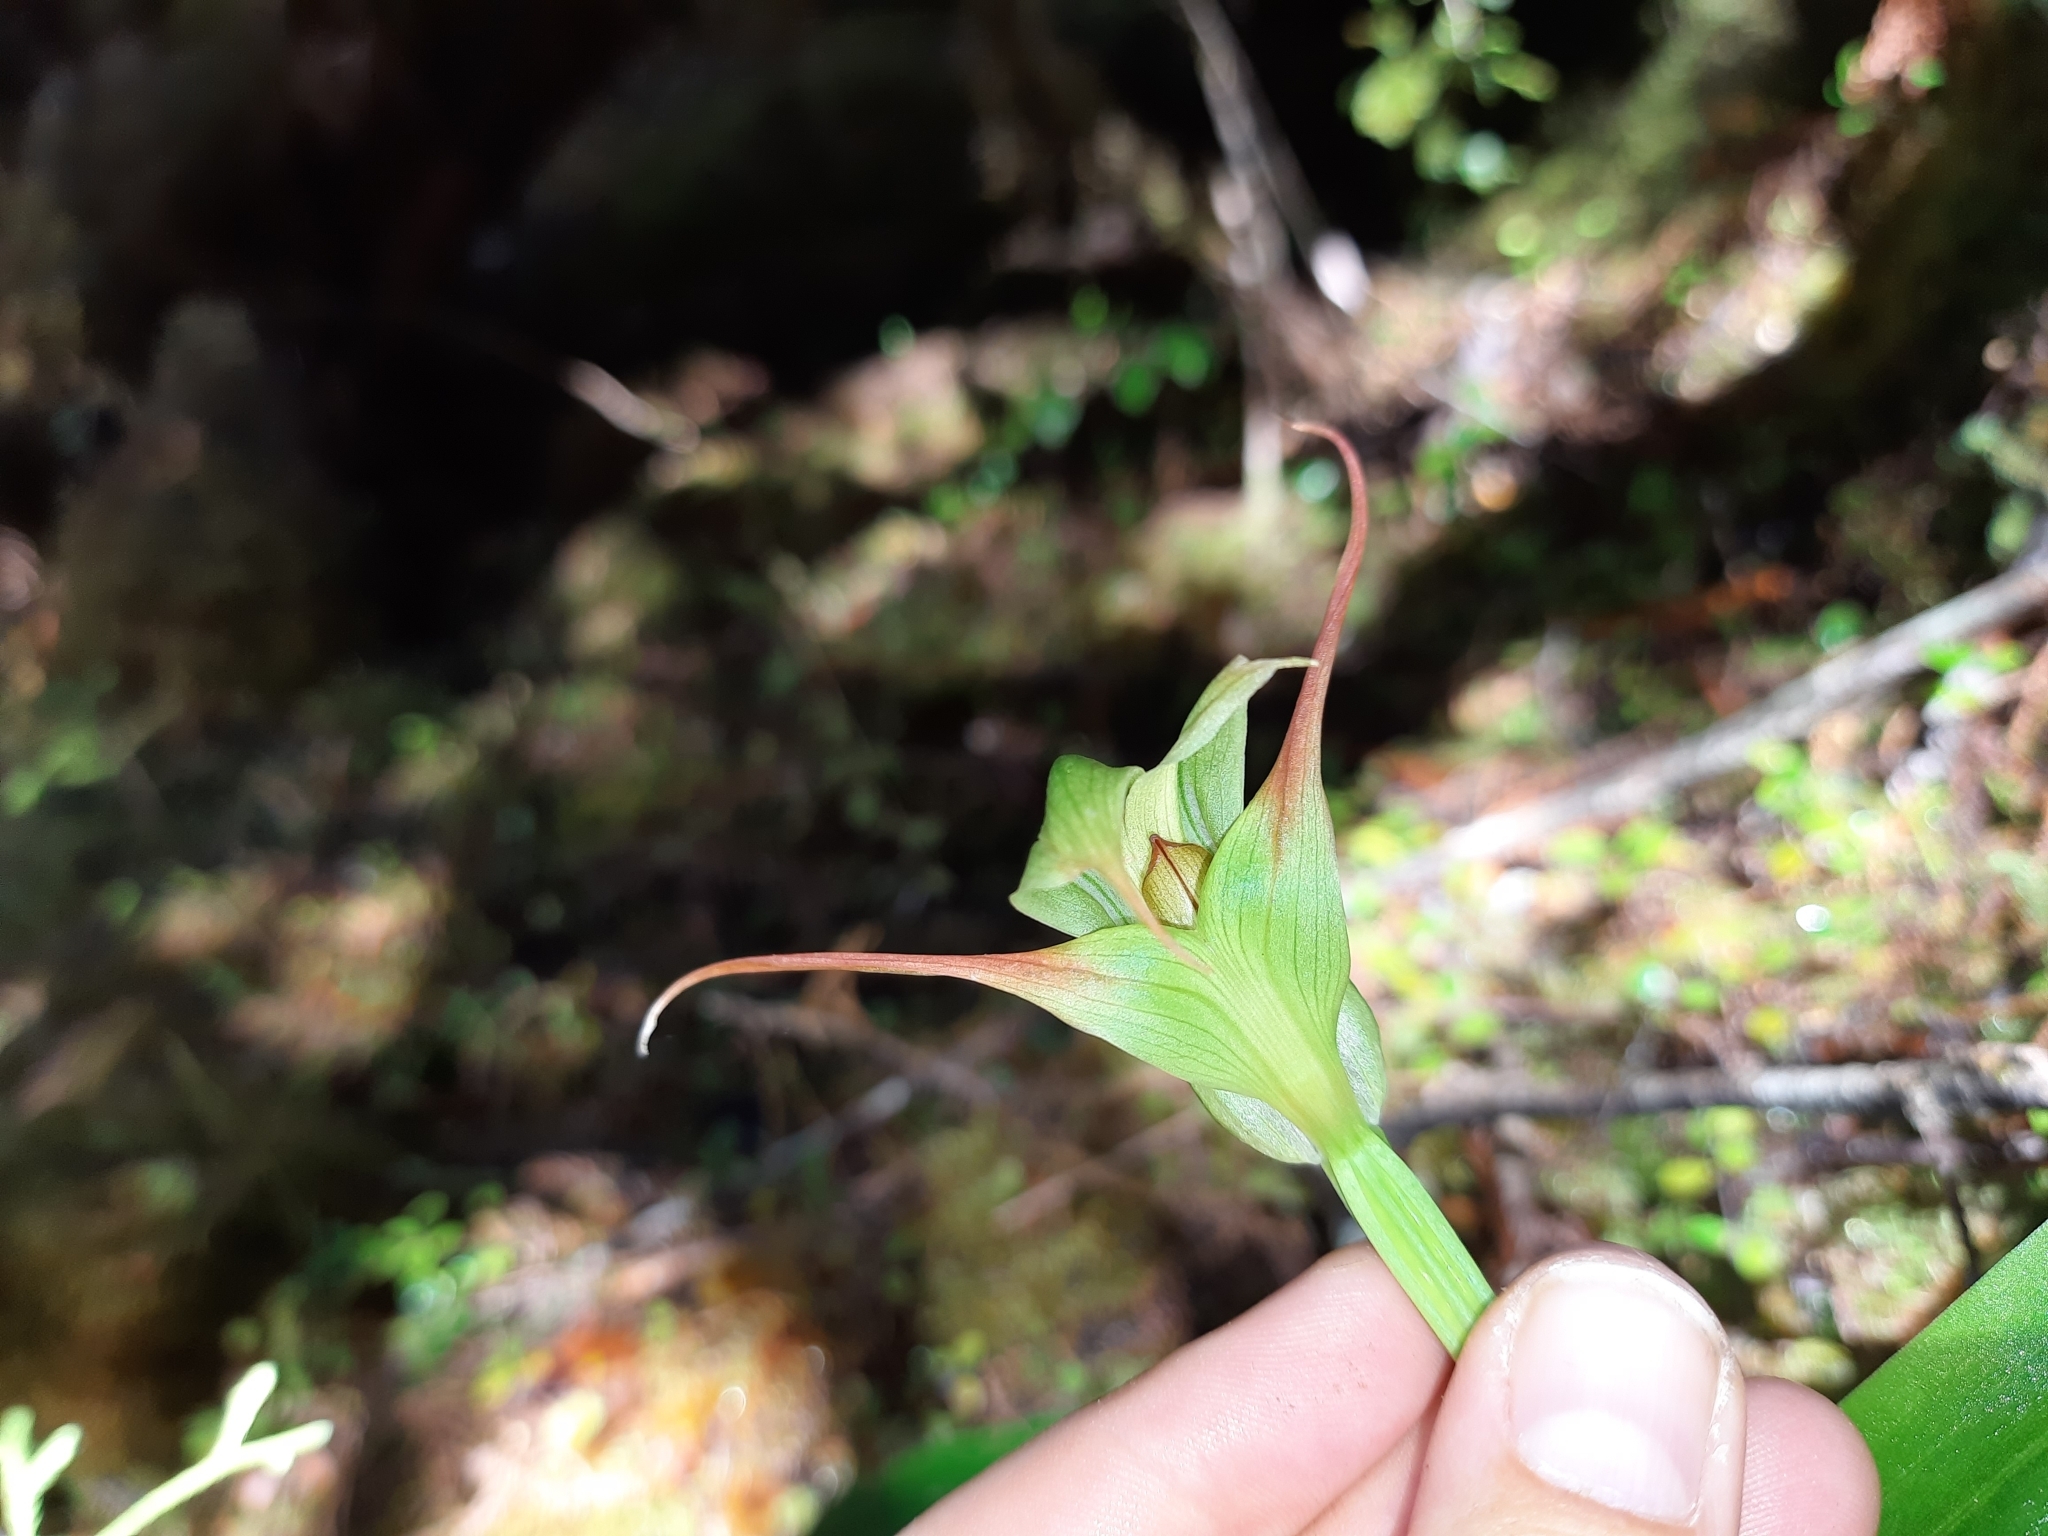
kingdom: Plantae
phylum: Tracheophyta
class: Liliopsida
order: Asparagales
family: Orchidaceae
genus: Pterostylis
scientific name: Pterostylis patens
